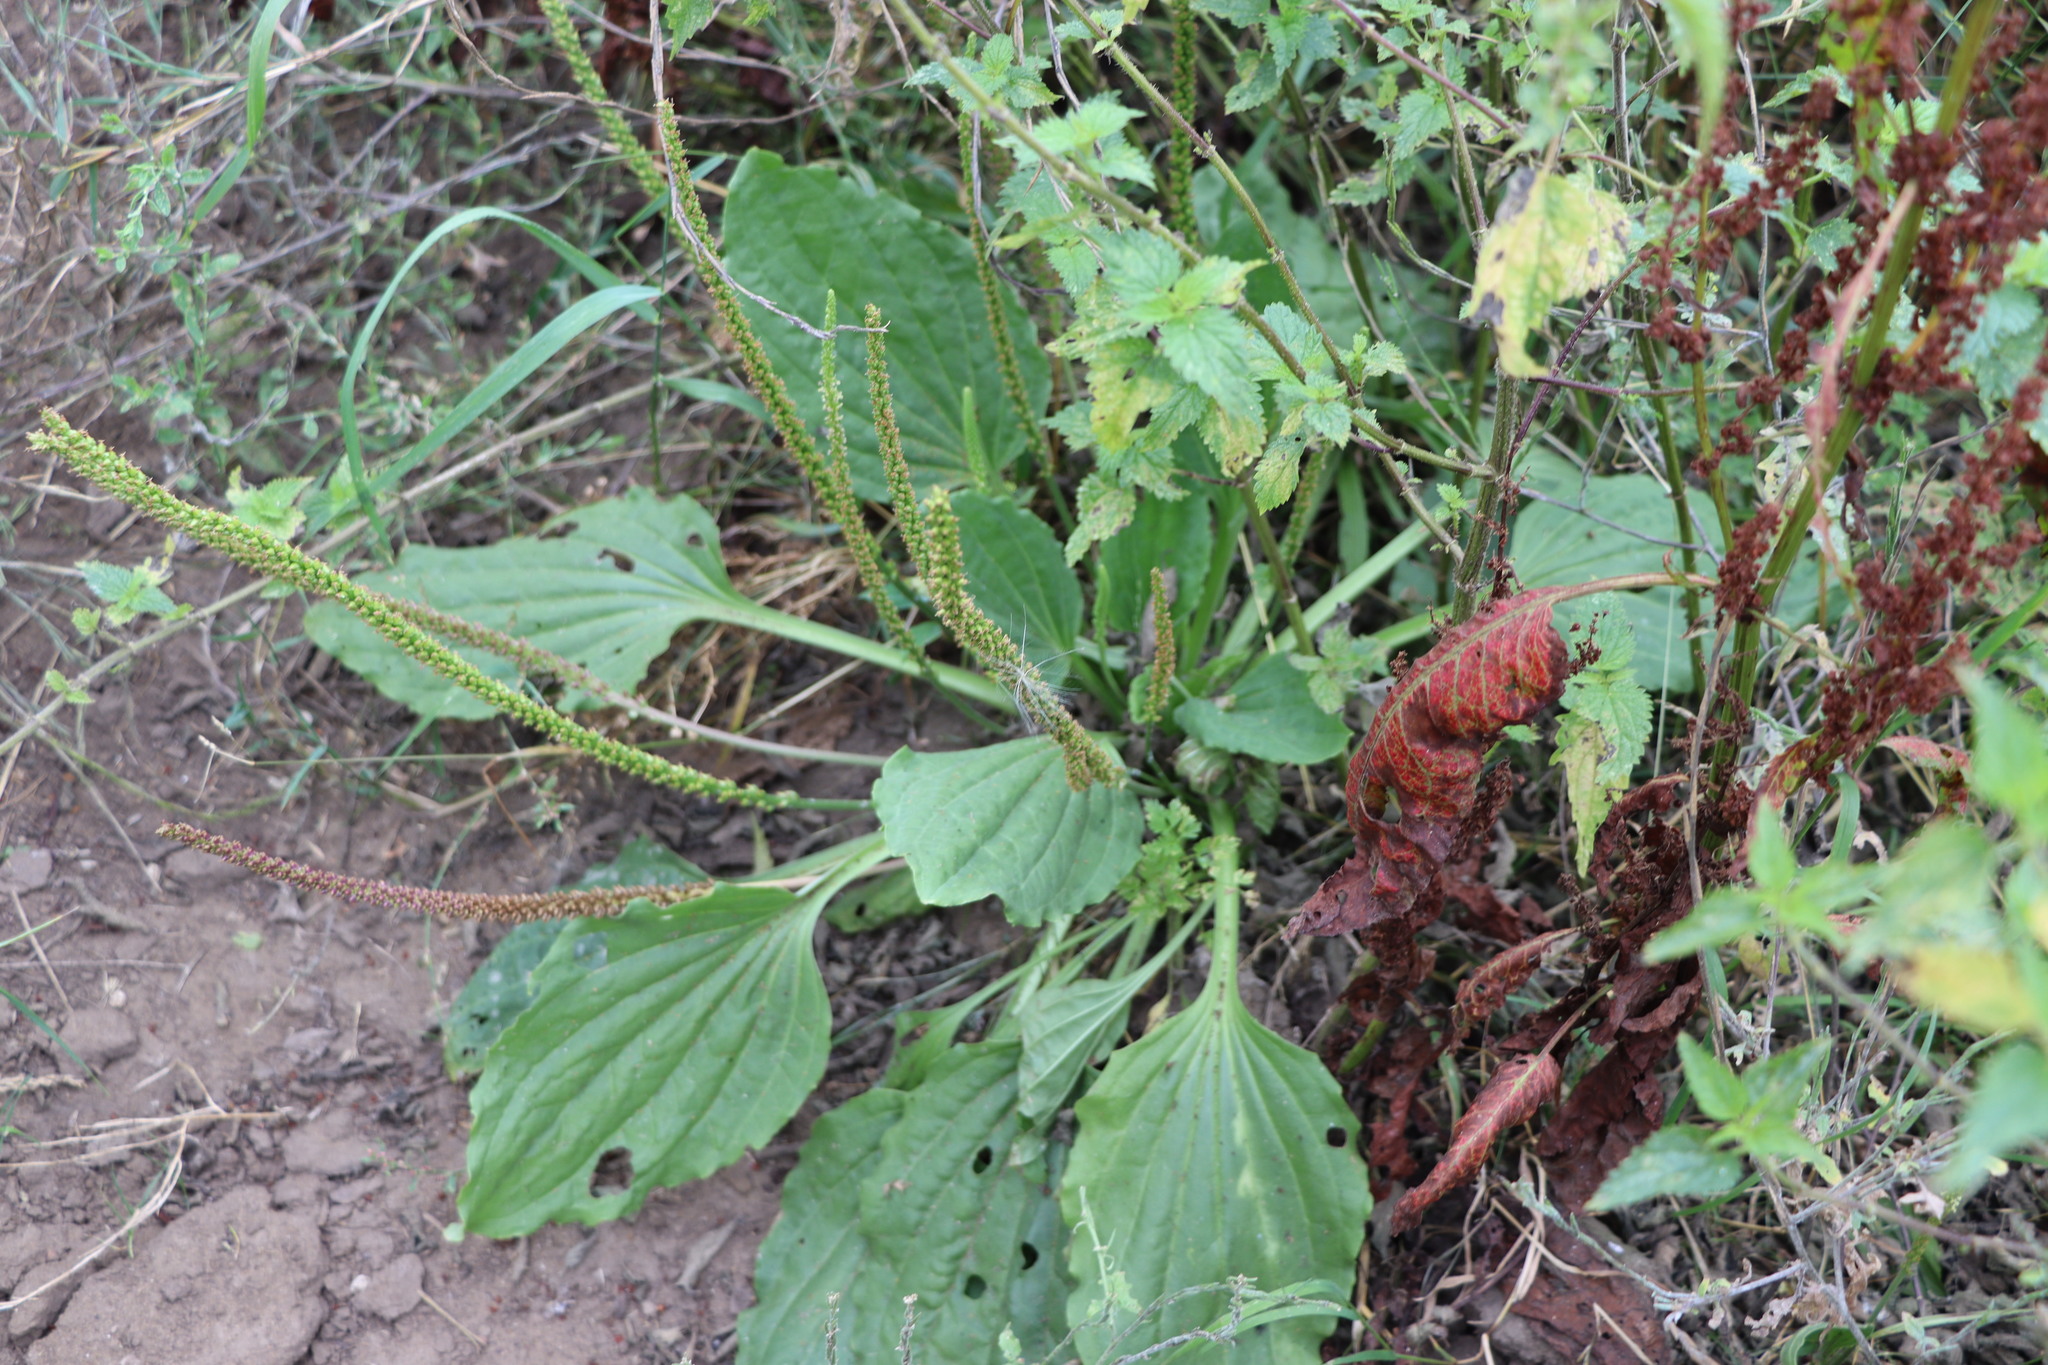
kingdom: Plantae
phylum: Tracheophyta
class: Magnoliopsida
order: Lamiales
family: Plantaginaceae
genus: Plantago
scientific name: Plantago major
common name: Common plantain
